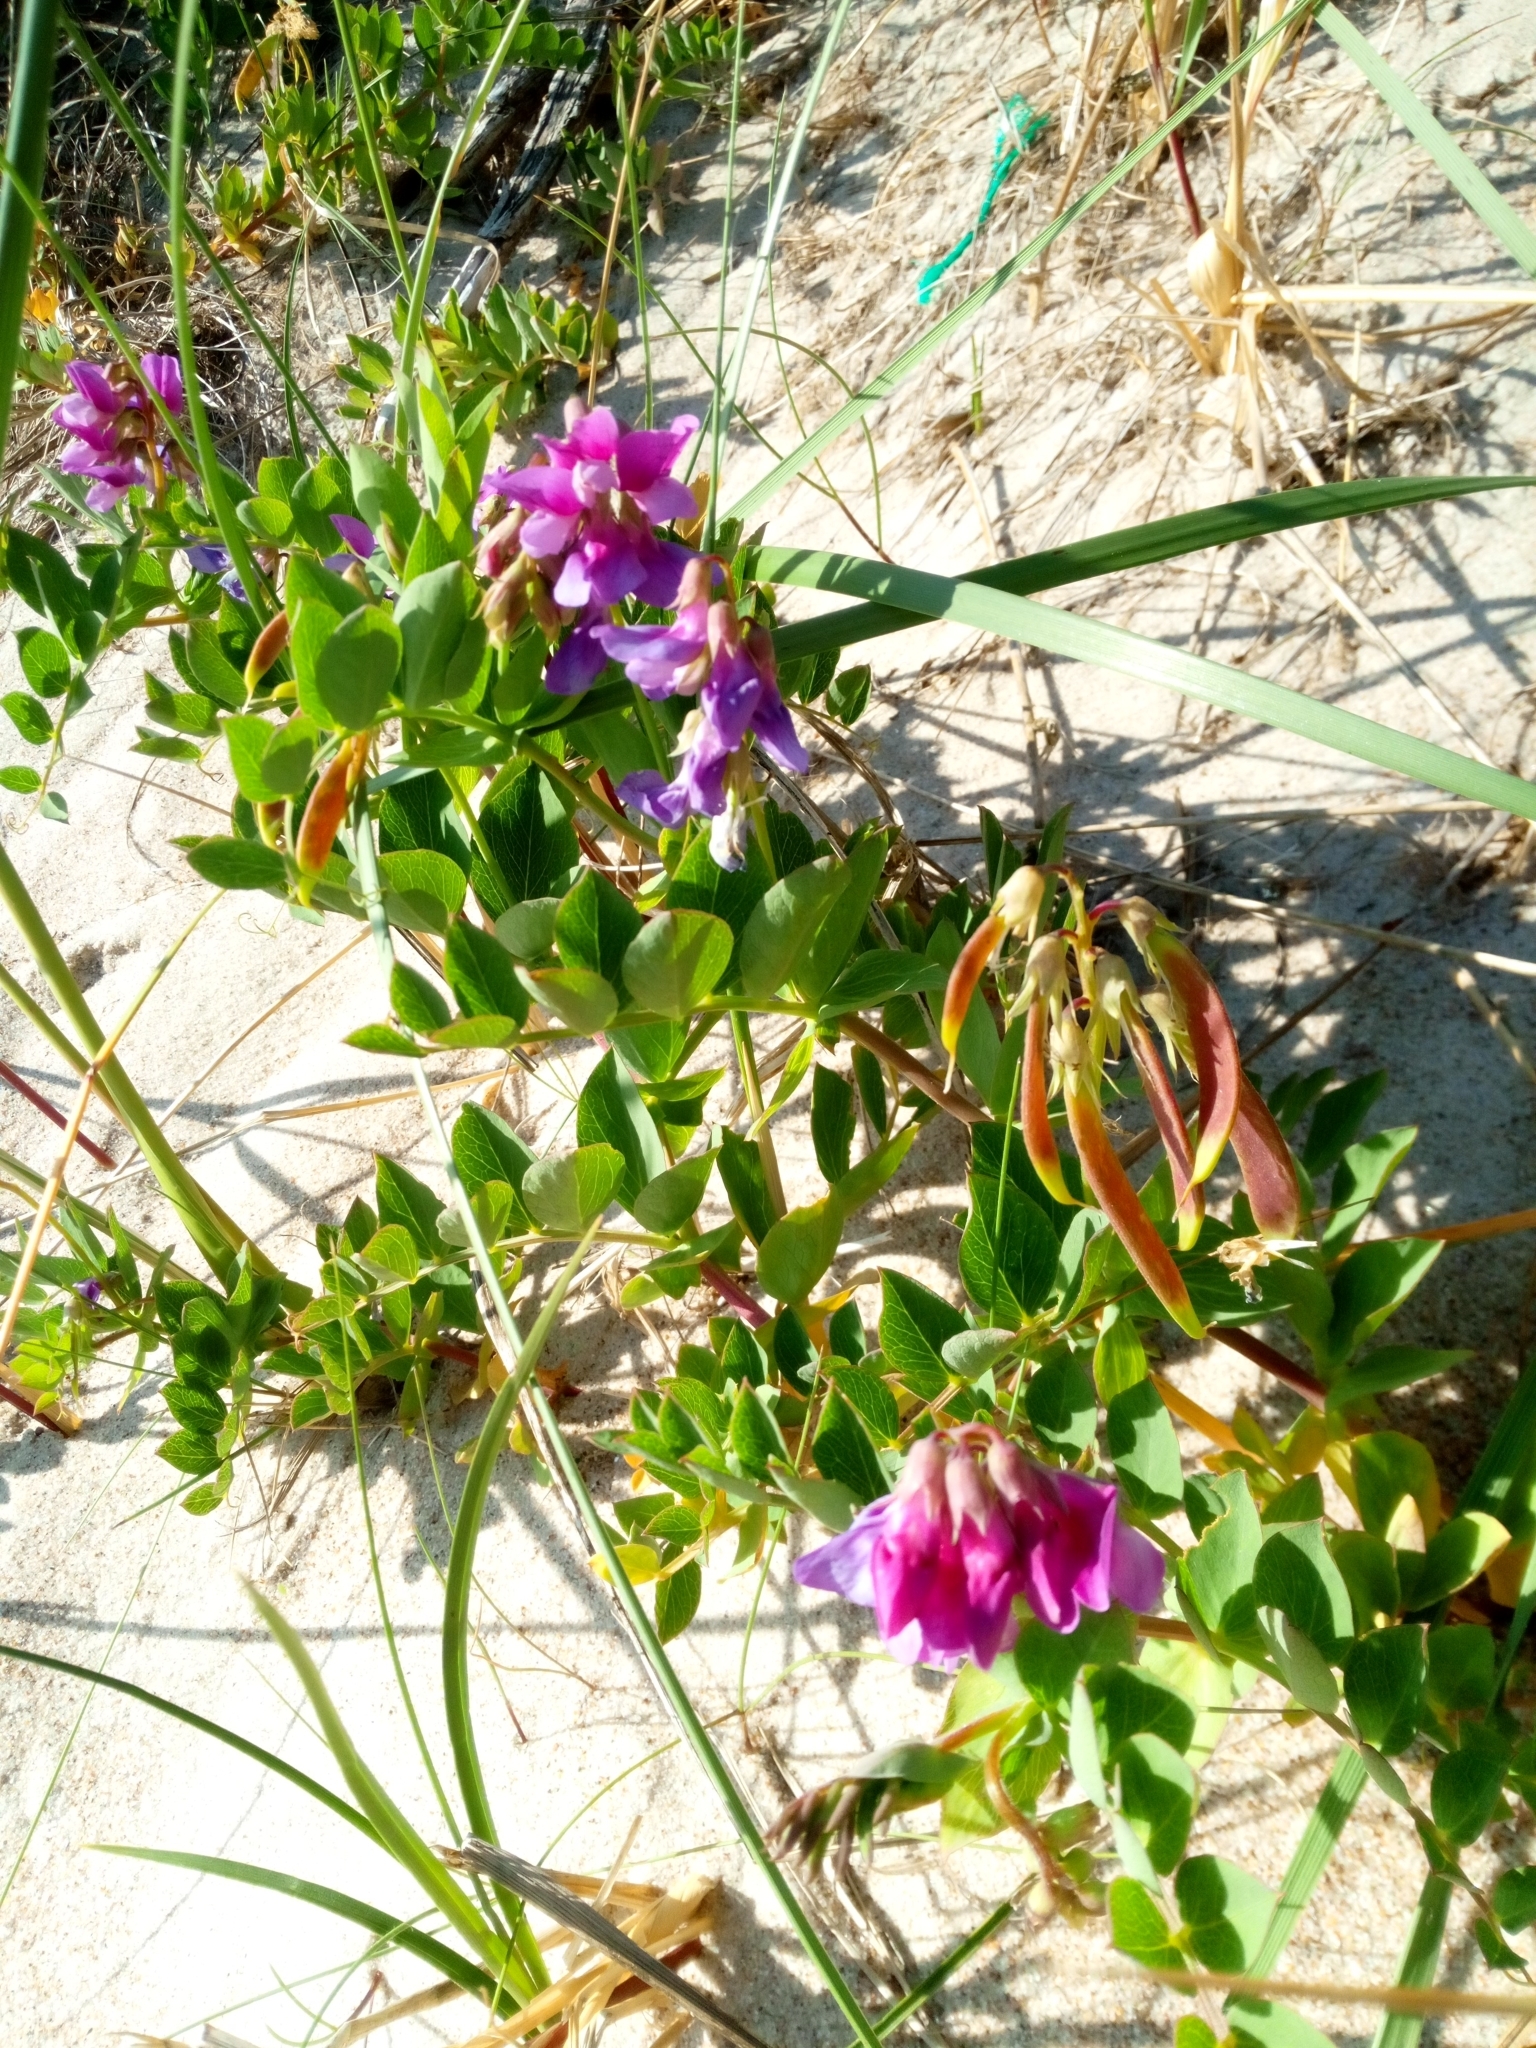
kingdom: Plantae
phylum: Tracheophyta
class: Magnoliopsida
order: Fabales
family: Fabaceae
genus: Lathyrus
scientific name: Lathyrus japonicus
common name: Sea pea
